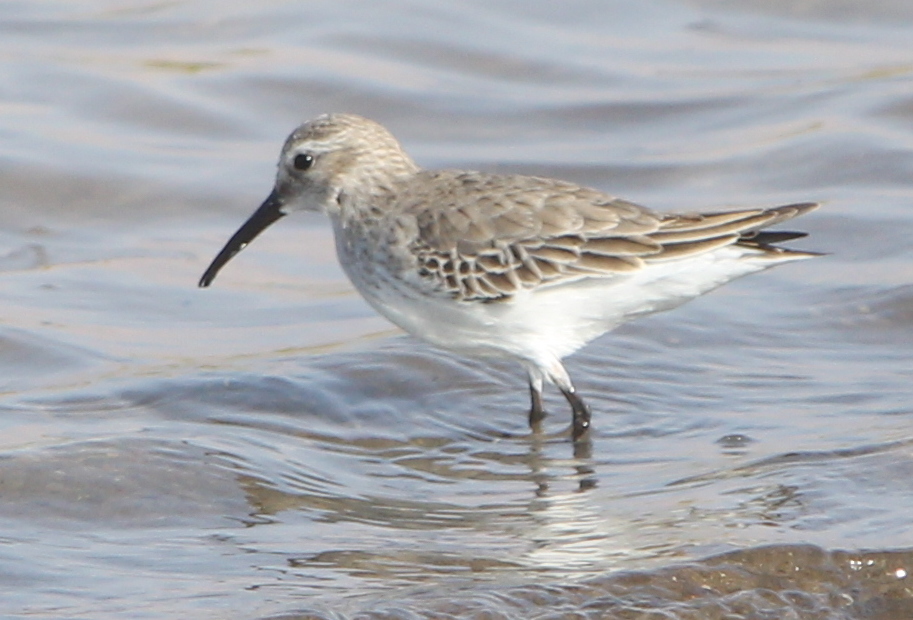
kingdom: Animalia
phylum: Chordata
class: Aves
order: Charadriiformes
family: Scolopacidae
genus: Calidris
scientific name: Calidris alpina
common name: Dunlin
